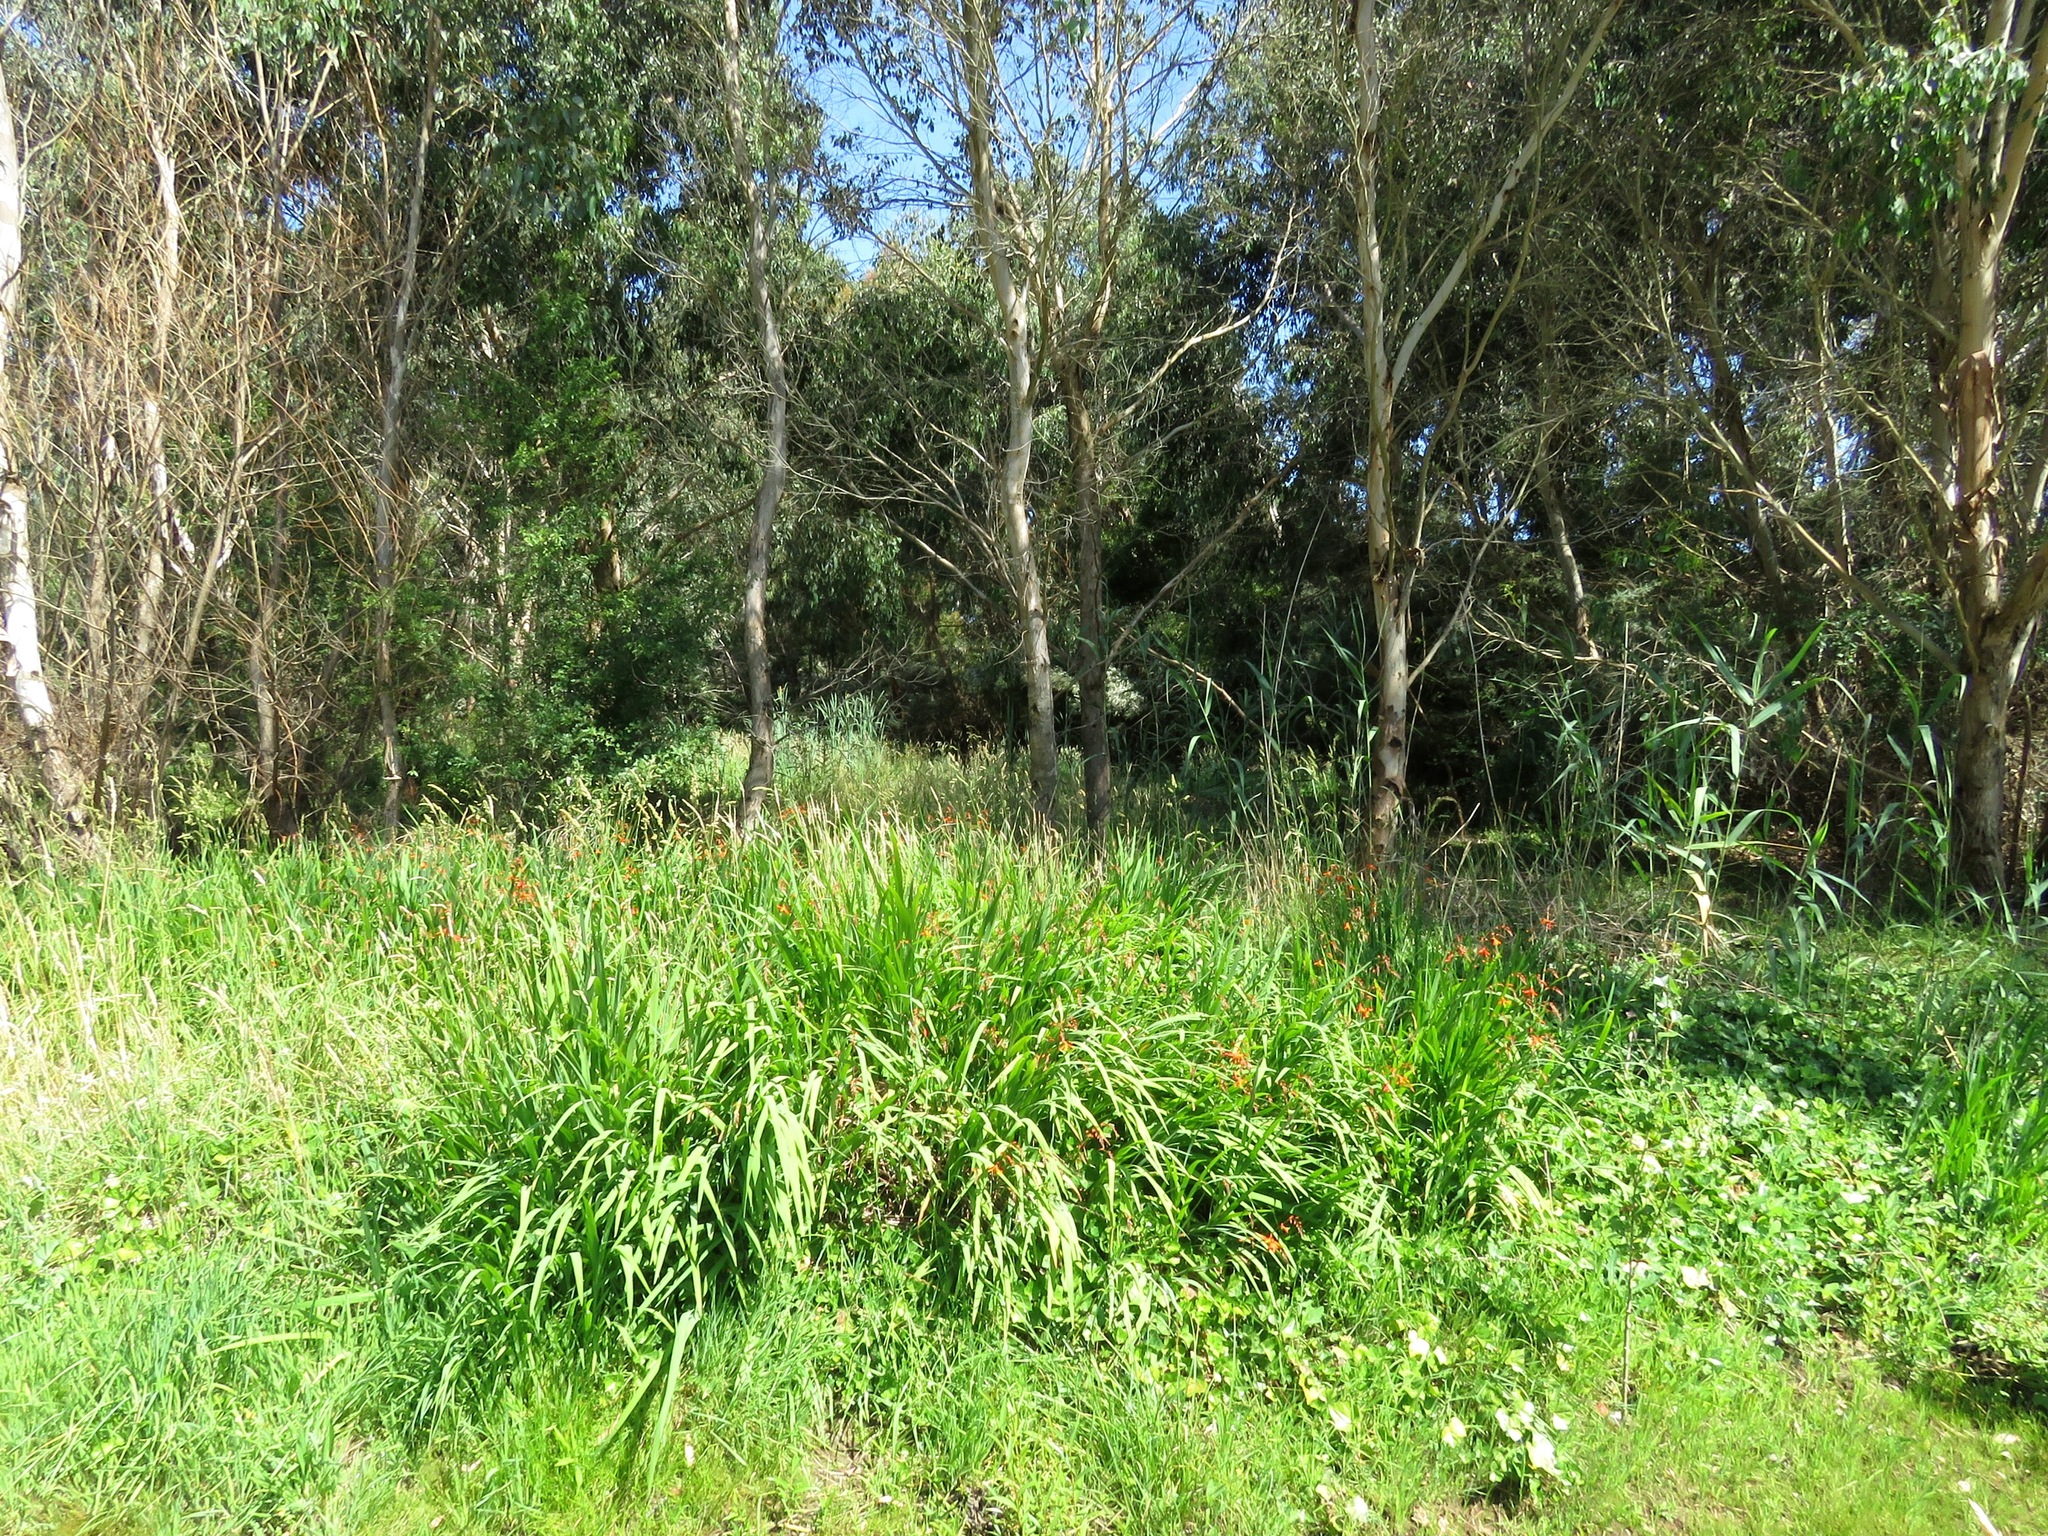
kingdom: Plantae
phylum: Tracheophyta
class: Liliopsida
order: Asparagales
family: Iridaceae
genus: Crocosmia
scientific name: Crocosmia crocosmiiflora
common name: Montbretia
